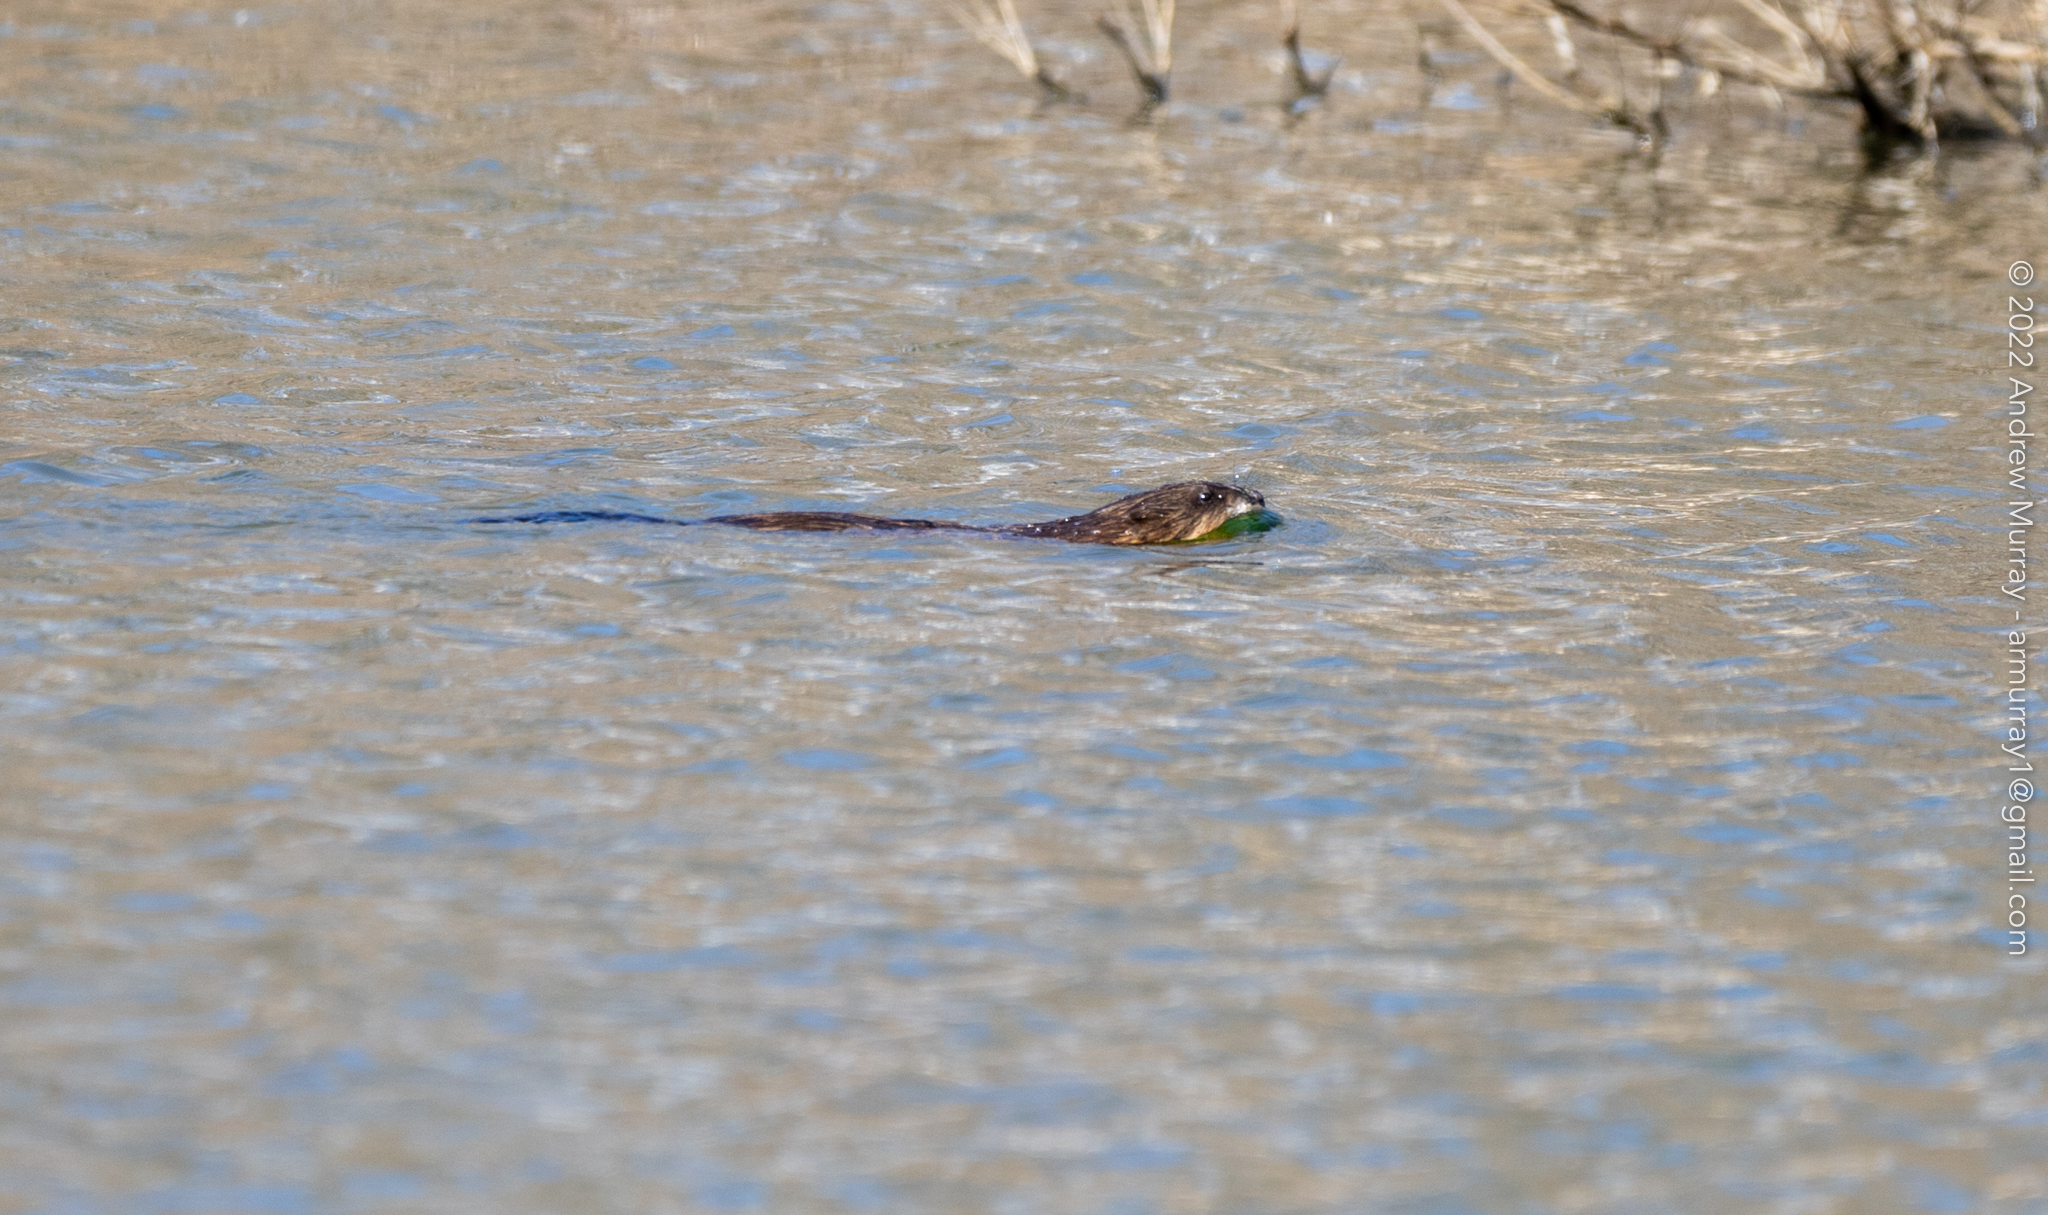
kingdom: Animalia
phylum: Chordata
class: Mammalia
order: Rodentia
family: Cricetidae
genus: Ondatra
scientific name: Ondatra zibethicus
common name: Muskrat
